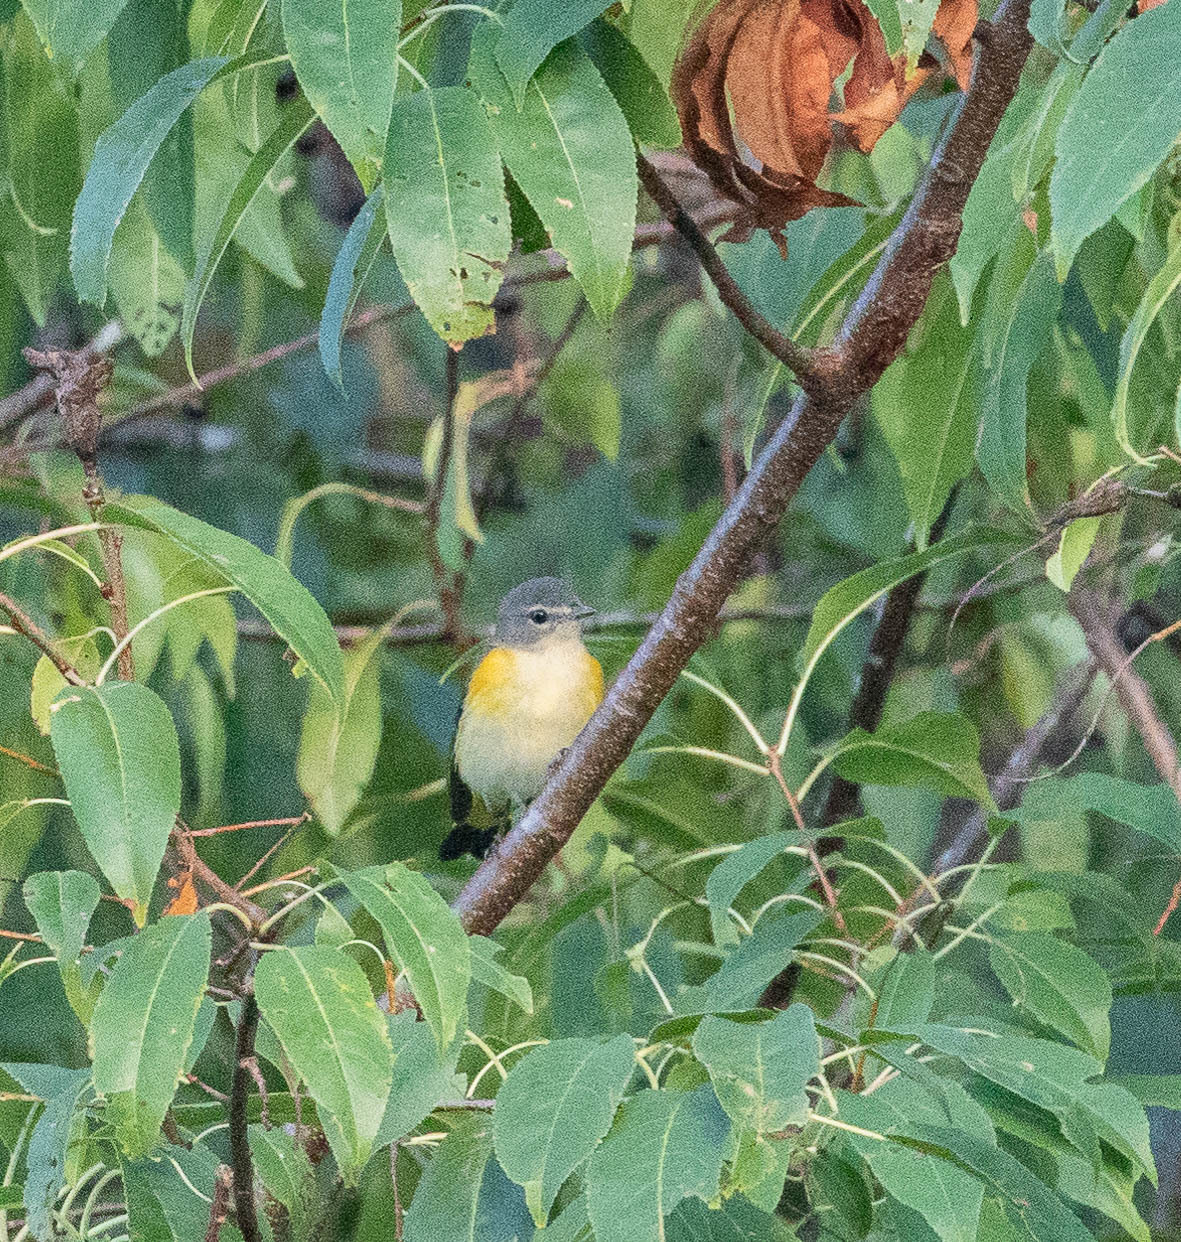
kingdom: Animalia
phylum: Chordata
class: Aves
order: Passeriformes
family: Parulidae
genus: Setophaga
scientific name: Setophaga ruticilla
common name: American redstart
